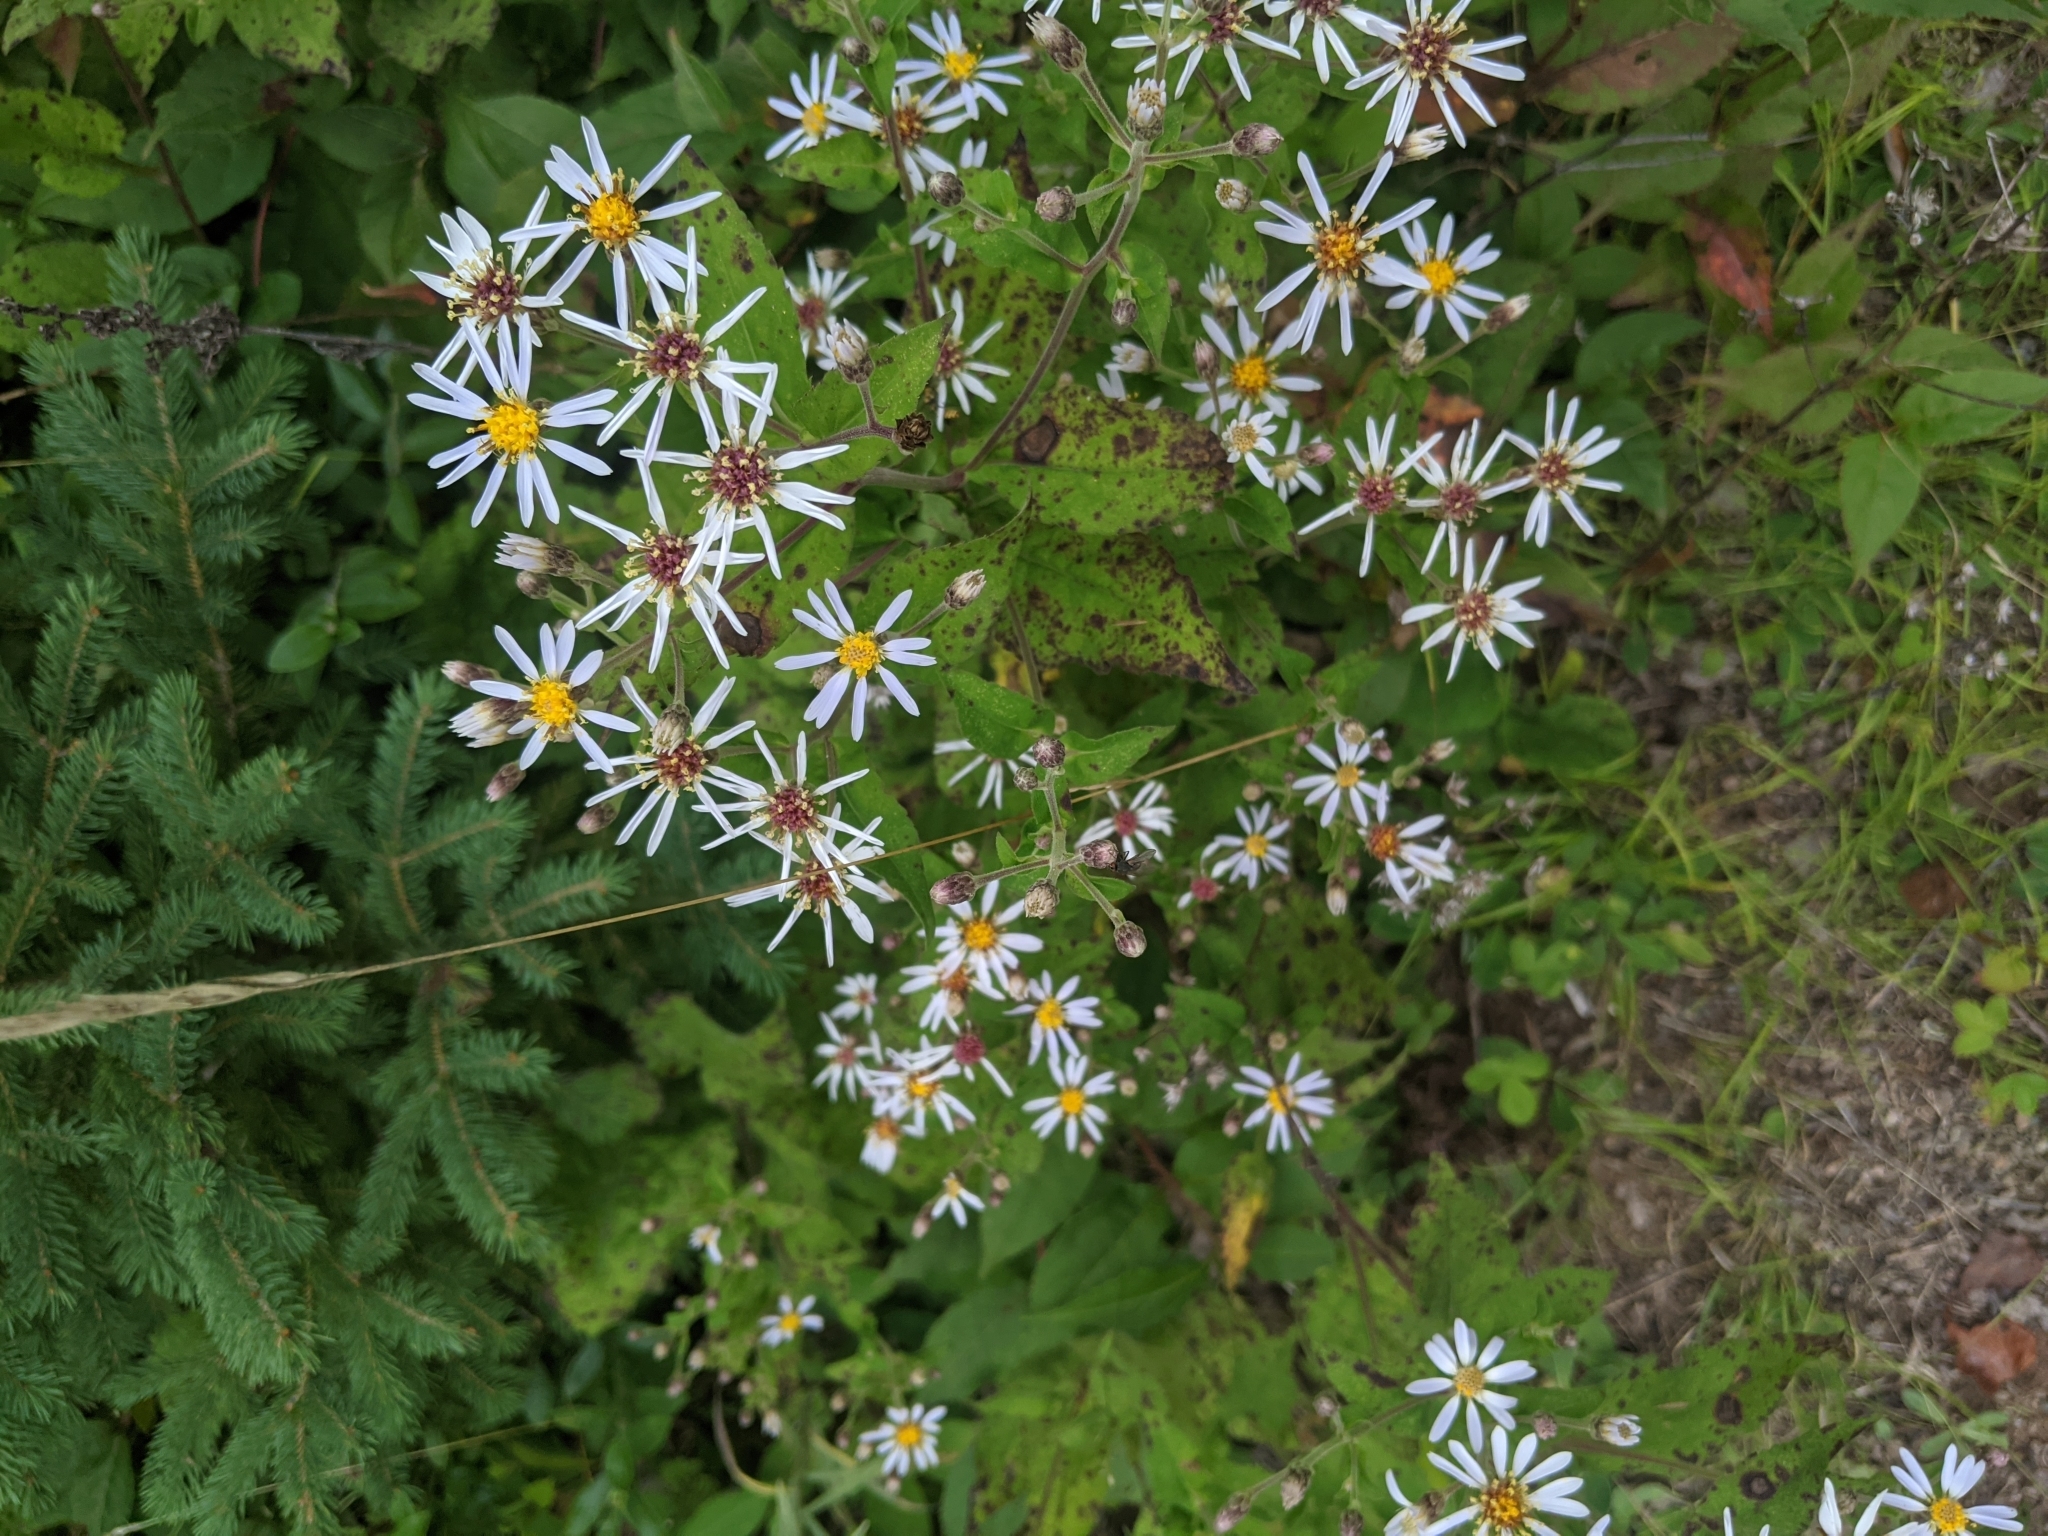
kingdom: Plantae
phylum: Tracheophyta
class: Magnoliopsida
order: Asterales
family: Asteraceae
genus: Eurybia
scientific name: Eurybia macrophylla
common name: Big-leaved aster
